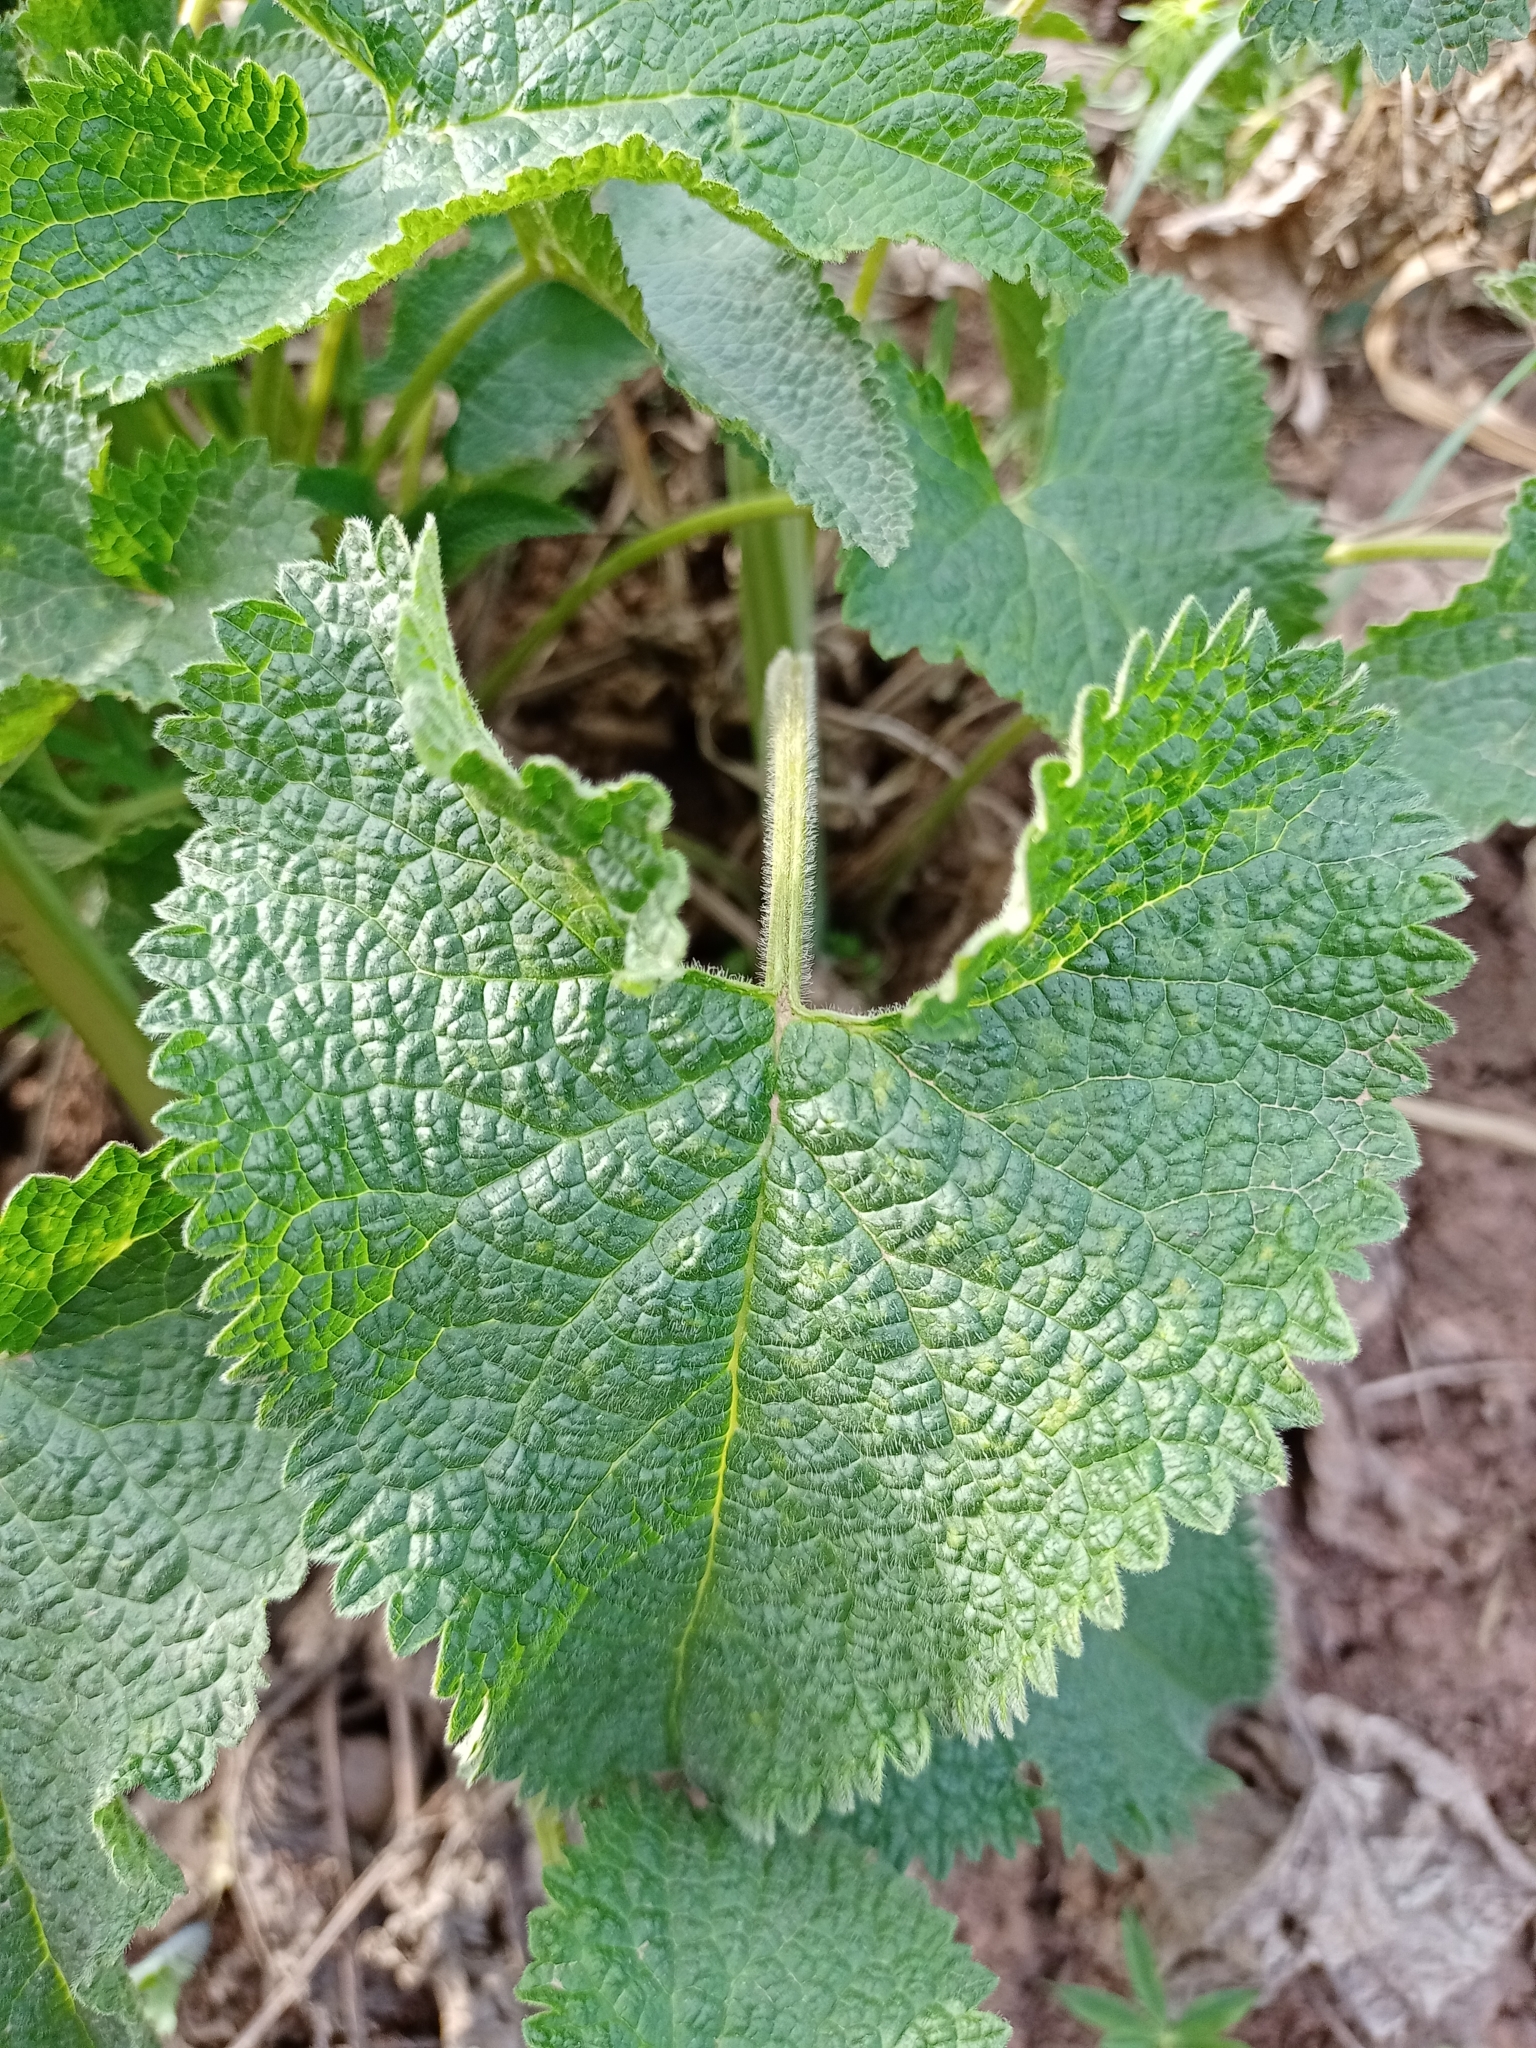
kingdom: Plantae
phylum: Tracheophyta
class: Magnoliopsida
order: Lamiales
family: Lamiaceae
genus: Phlomoides
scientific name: Phlomoides tuberosa
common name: Tuberous jerusalem sage
